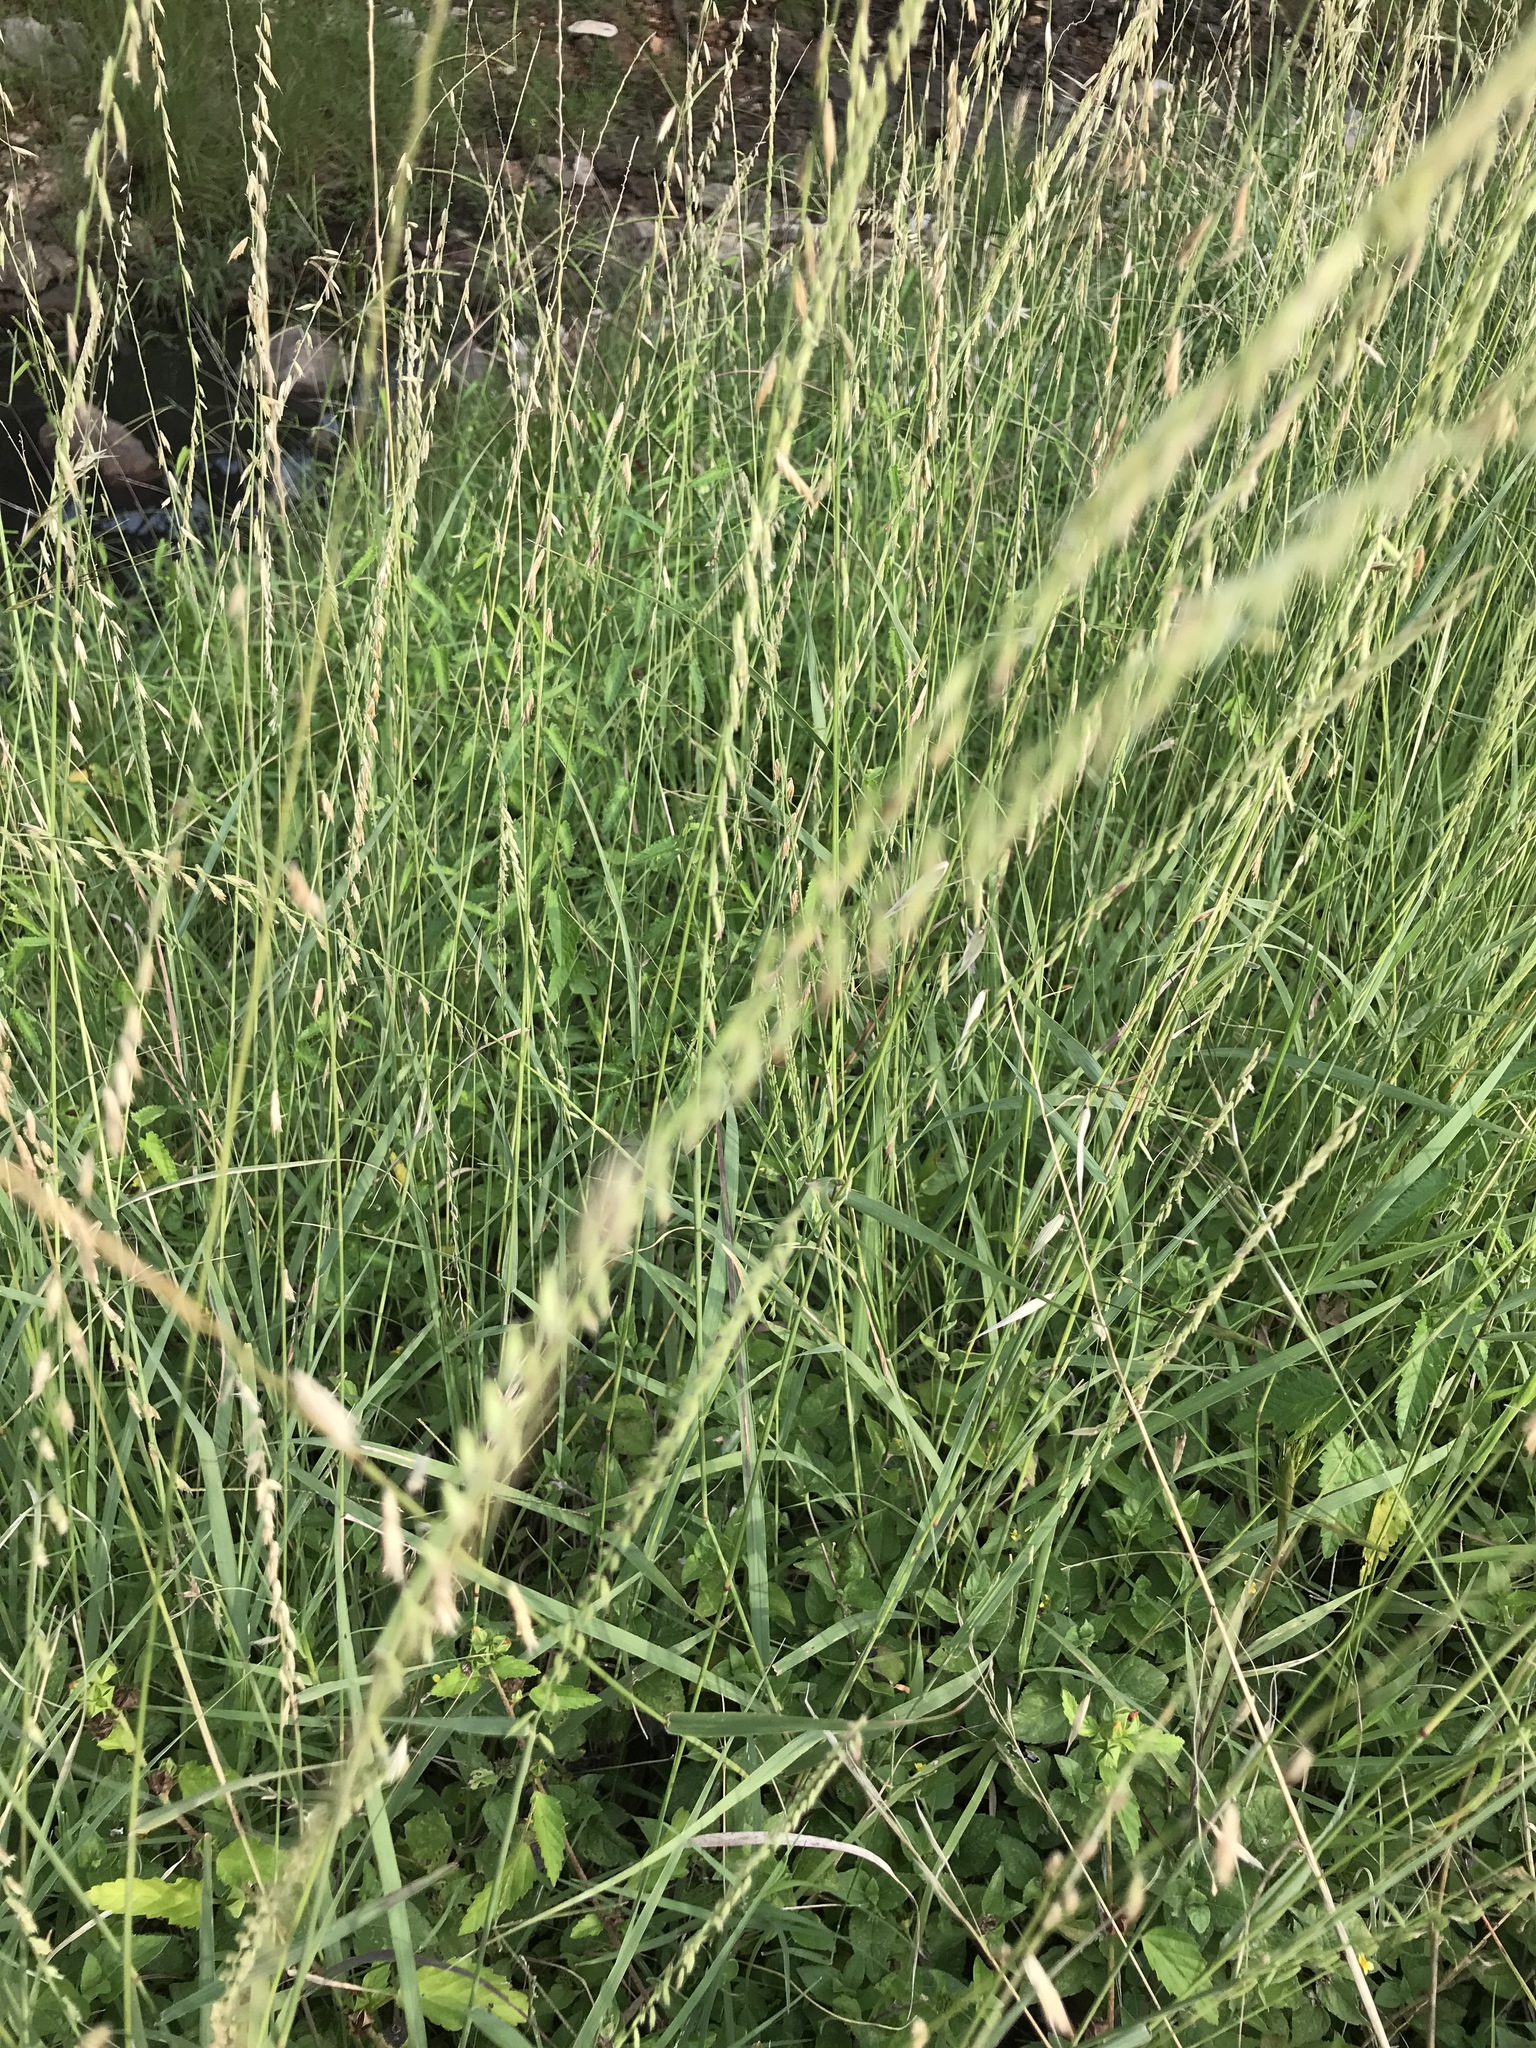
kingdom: Plantae
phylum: Tracheophyta
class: Liliopsida
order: Poales
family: Poaceae
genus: Bouteloua
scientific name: Bouteloua curtipendula
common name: Side-oats grama
